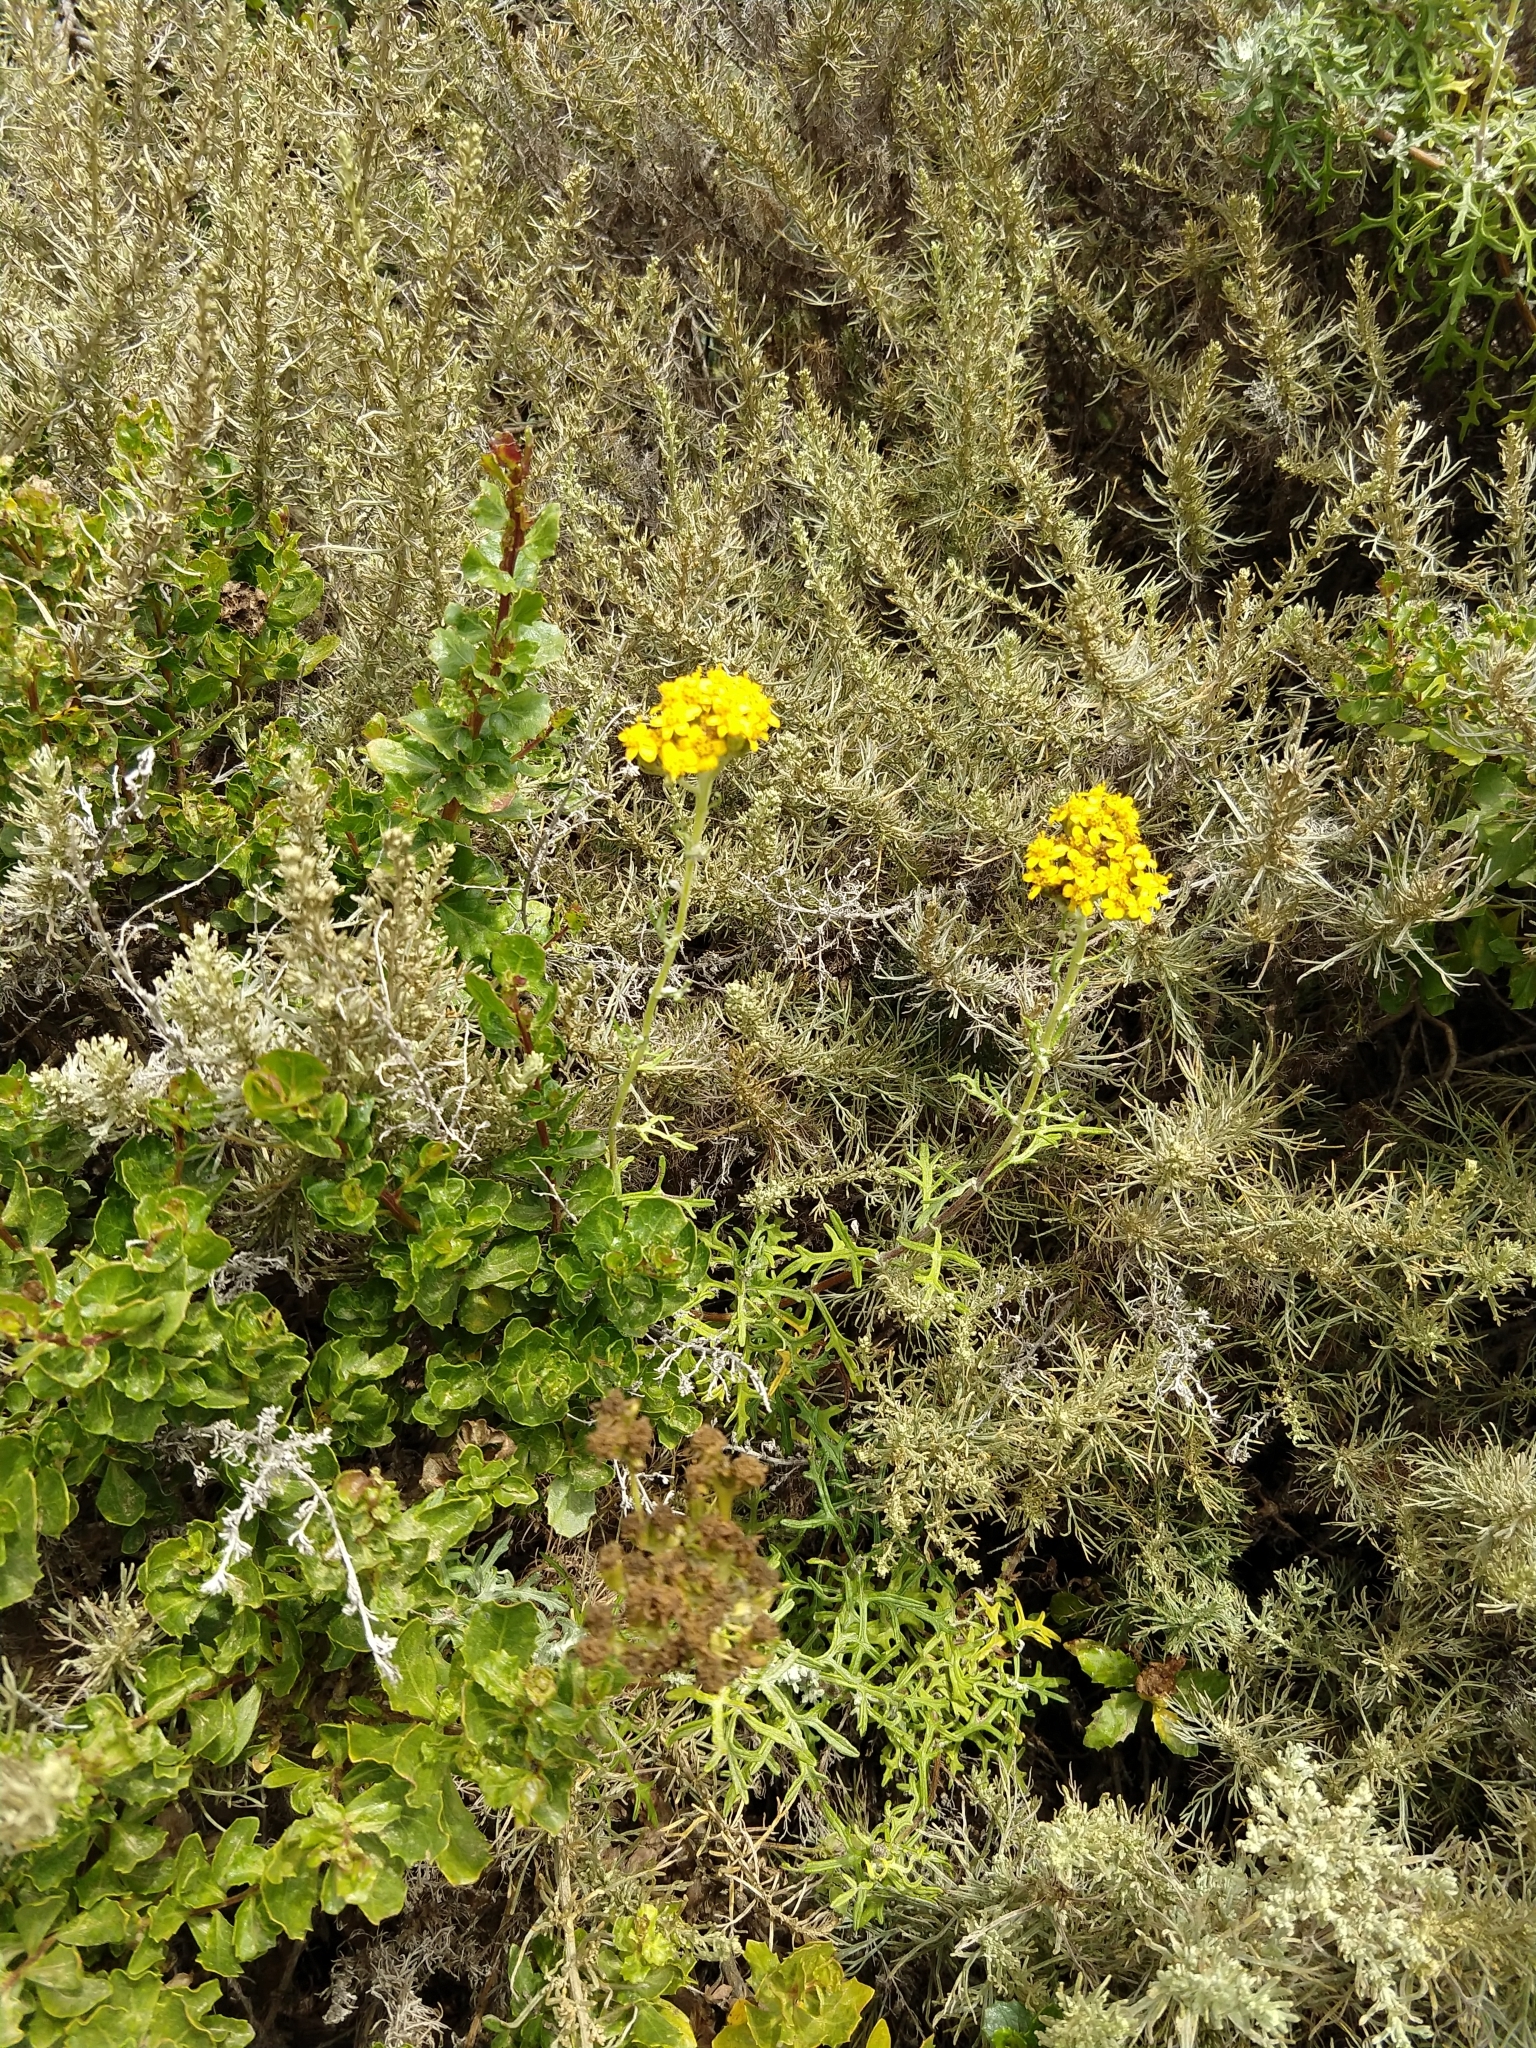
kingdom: Plantae
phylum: Tracheophyta
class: Magnoliopsida
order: Asterales
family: Asteraceae
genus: Eriophyllum
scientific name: Eriophyllum staechadifolium
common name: Lizardtail
